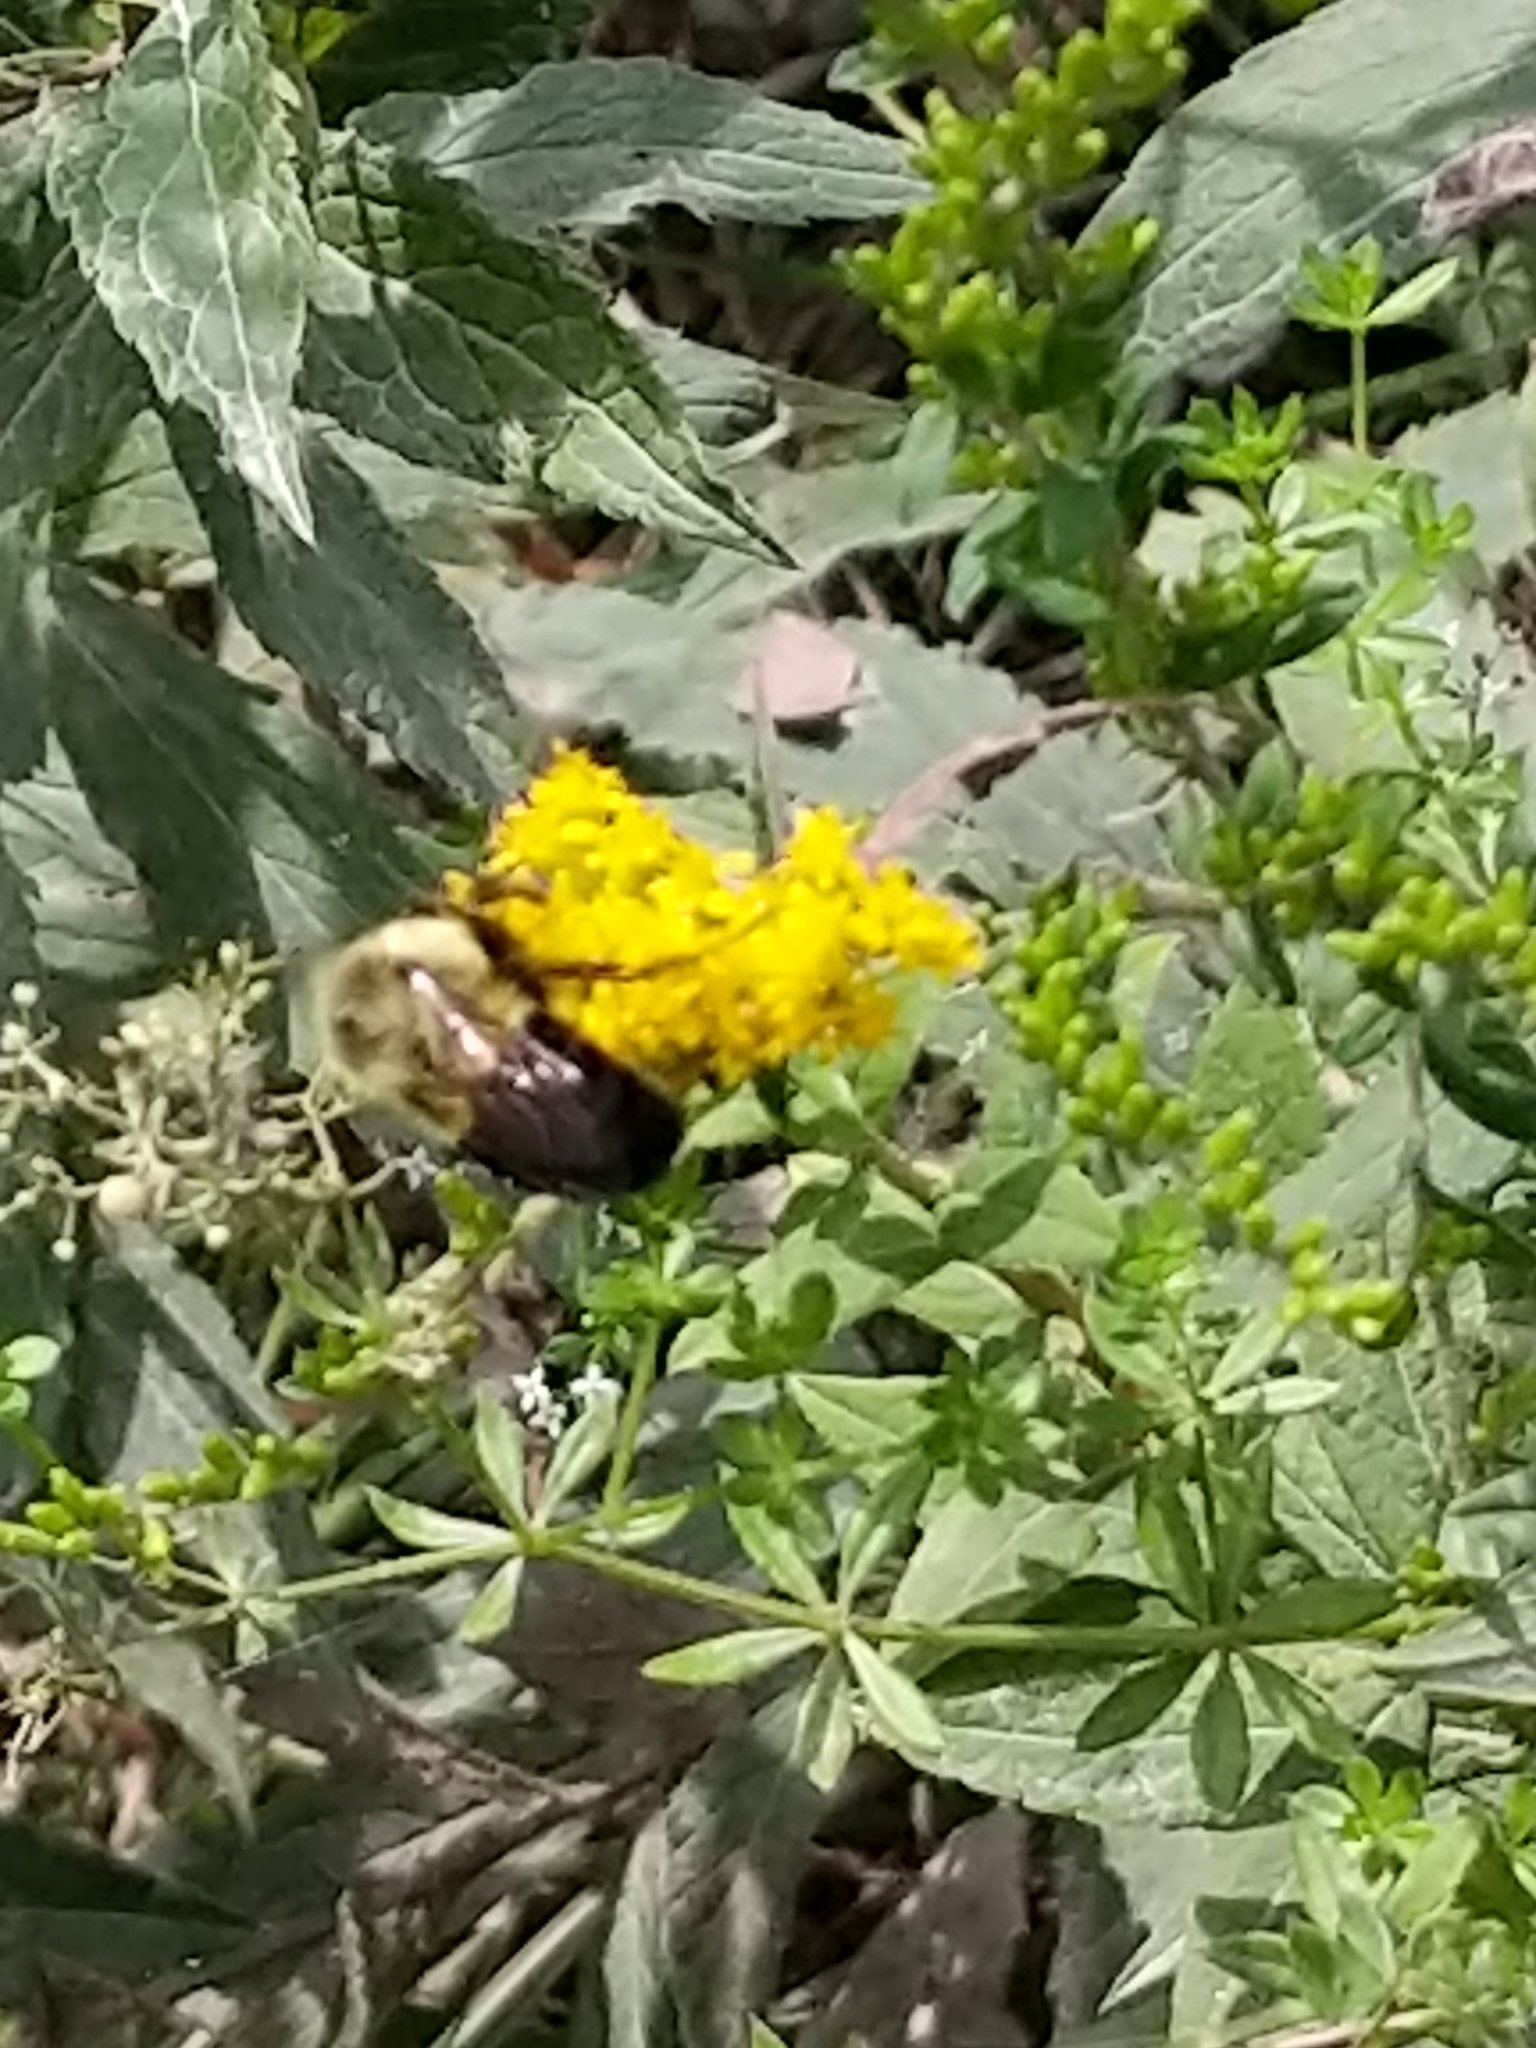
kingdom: Animalia
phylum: Arthropoda
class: Insecta
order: Hymenoptera
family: Apidae
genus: Bombus
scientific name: Bombus impatiens
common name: Common eastern bumble bee
